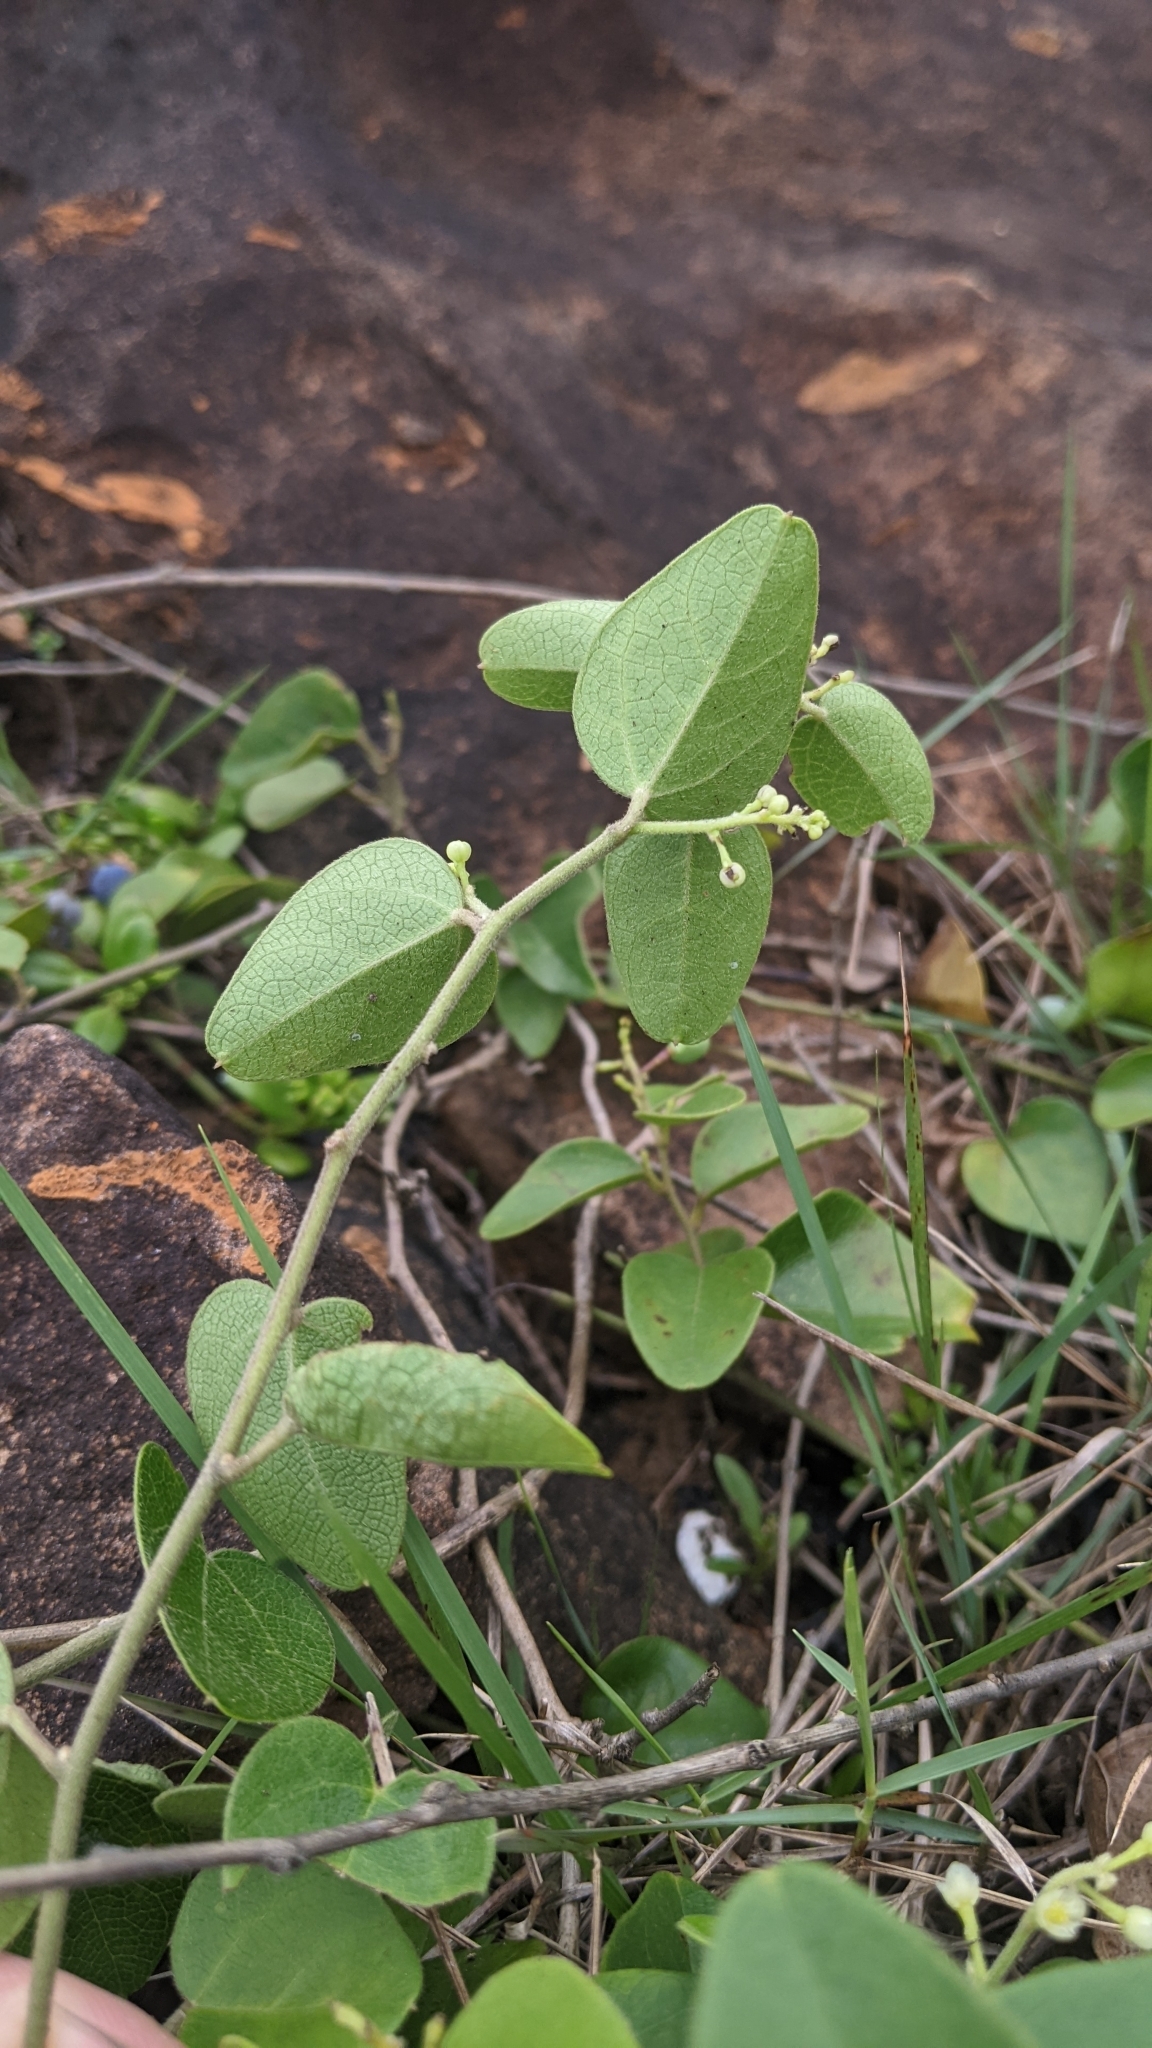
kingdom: Plantae
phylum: Tracheophyta
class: Magnoliopsida
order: Ranunculales
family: Menispermaceae
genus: Cocculus
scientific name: Cocculus orbiculatus
